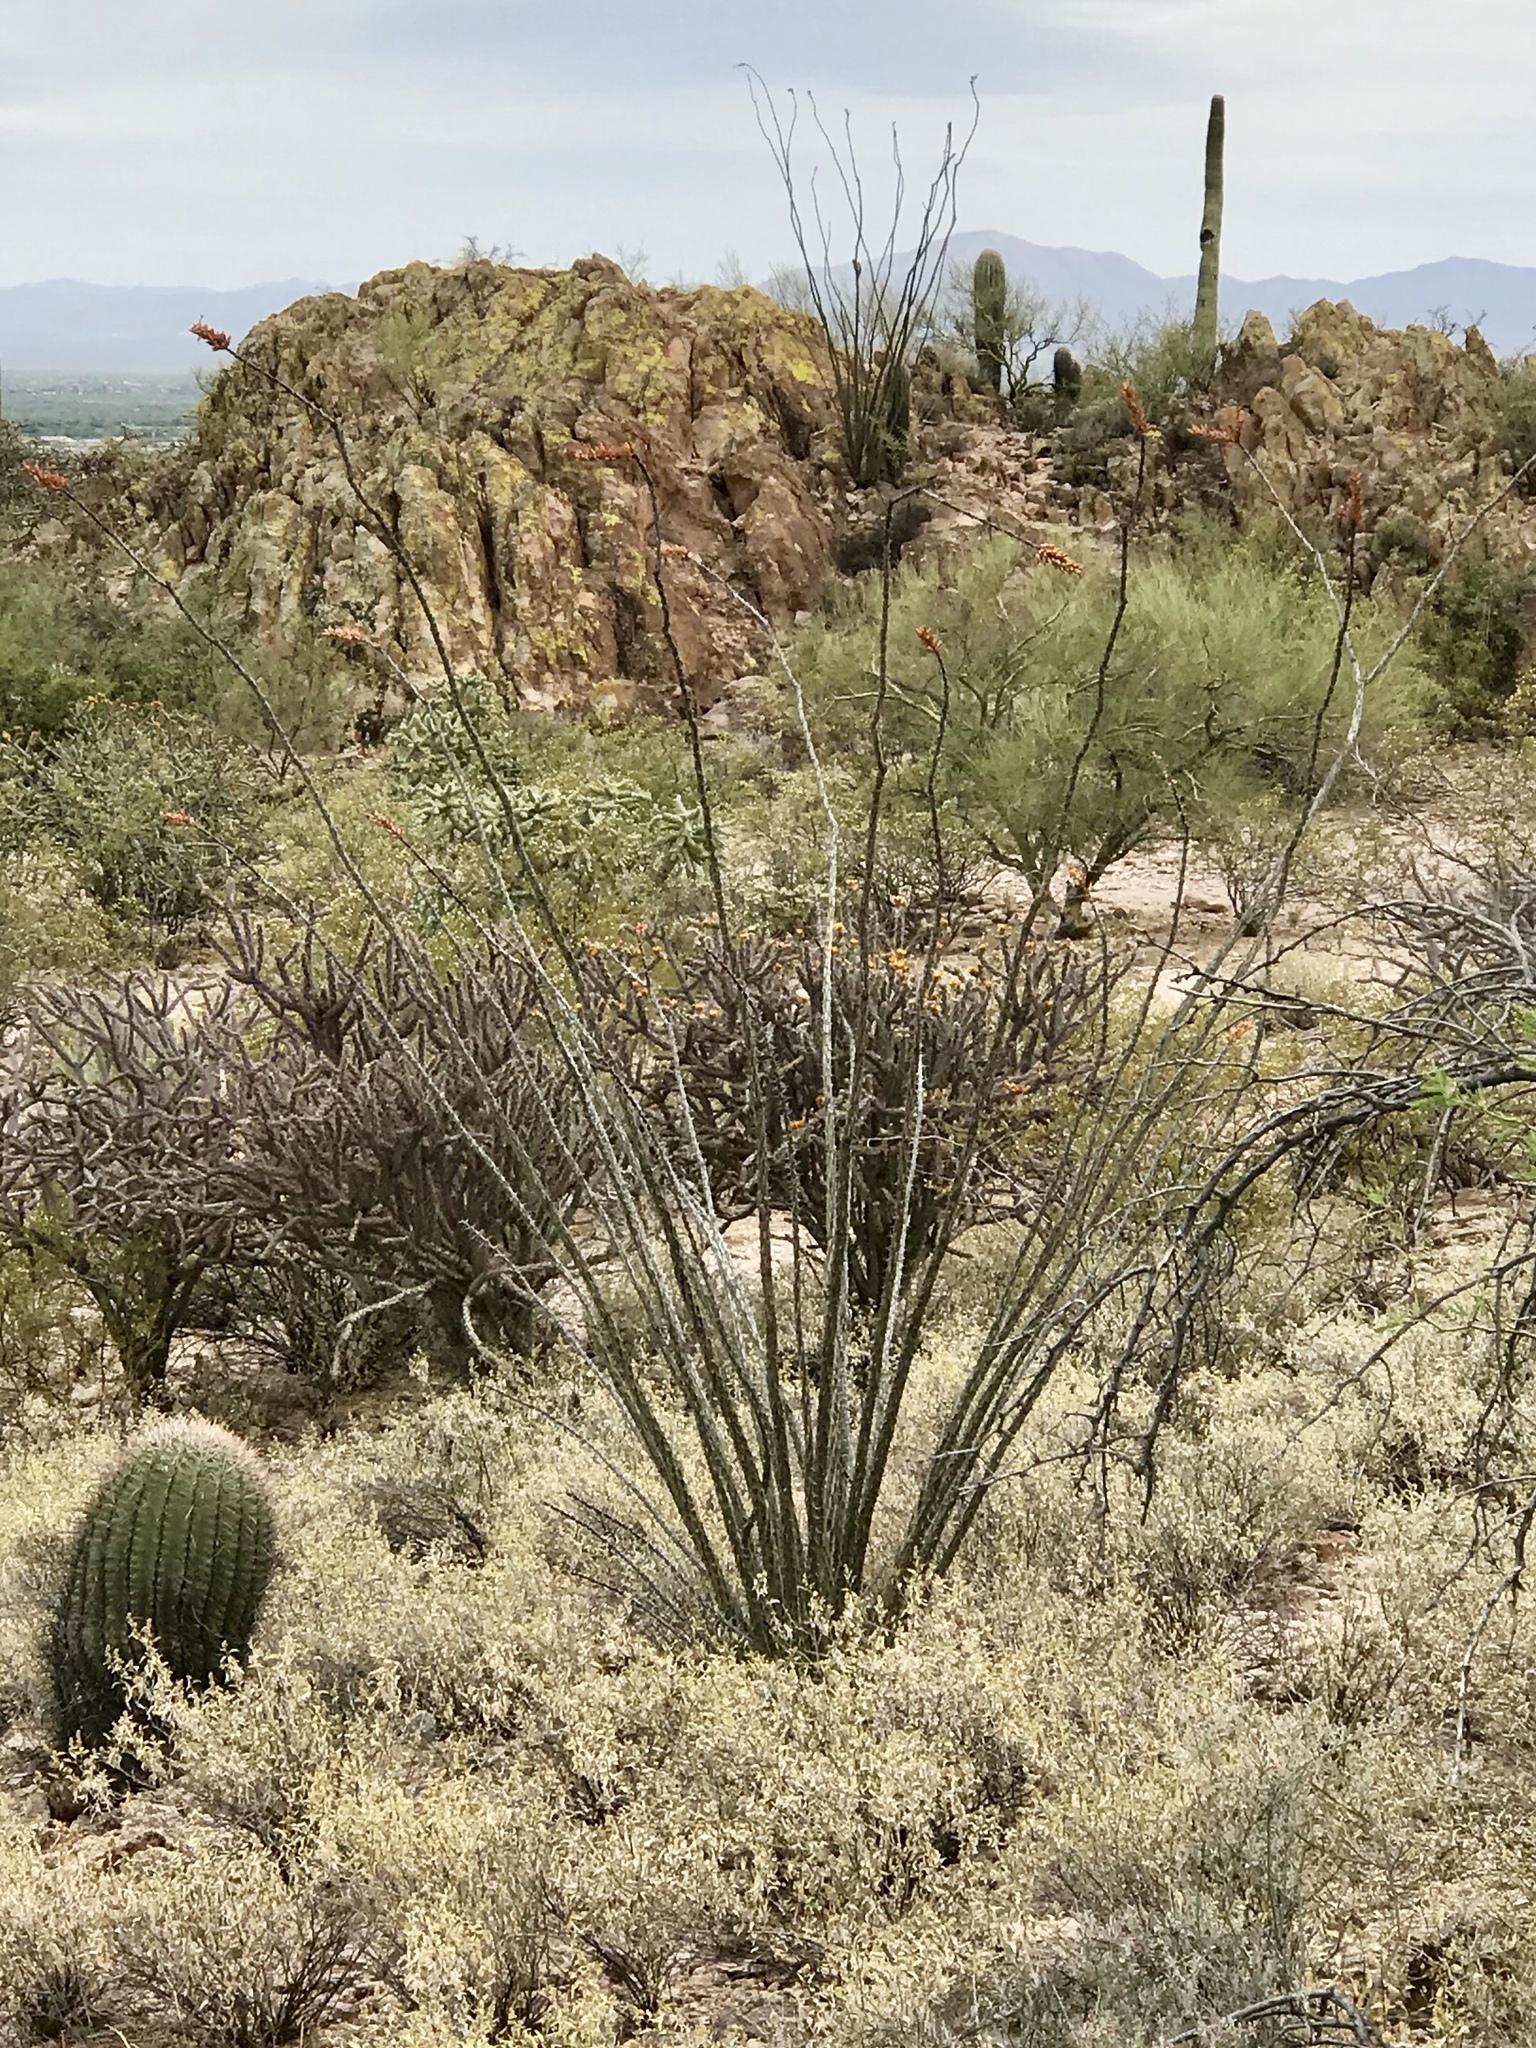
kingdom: Plantae
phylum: Tracheophyta
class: Magnoliopsida
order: Ericales
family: Fouquieriaceae
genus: Fouquieria
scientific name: Fouquieria splendens
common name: Vine-cactus
